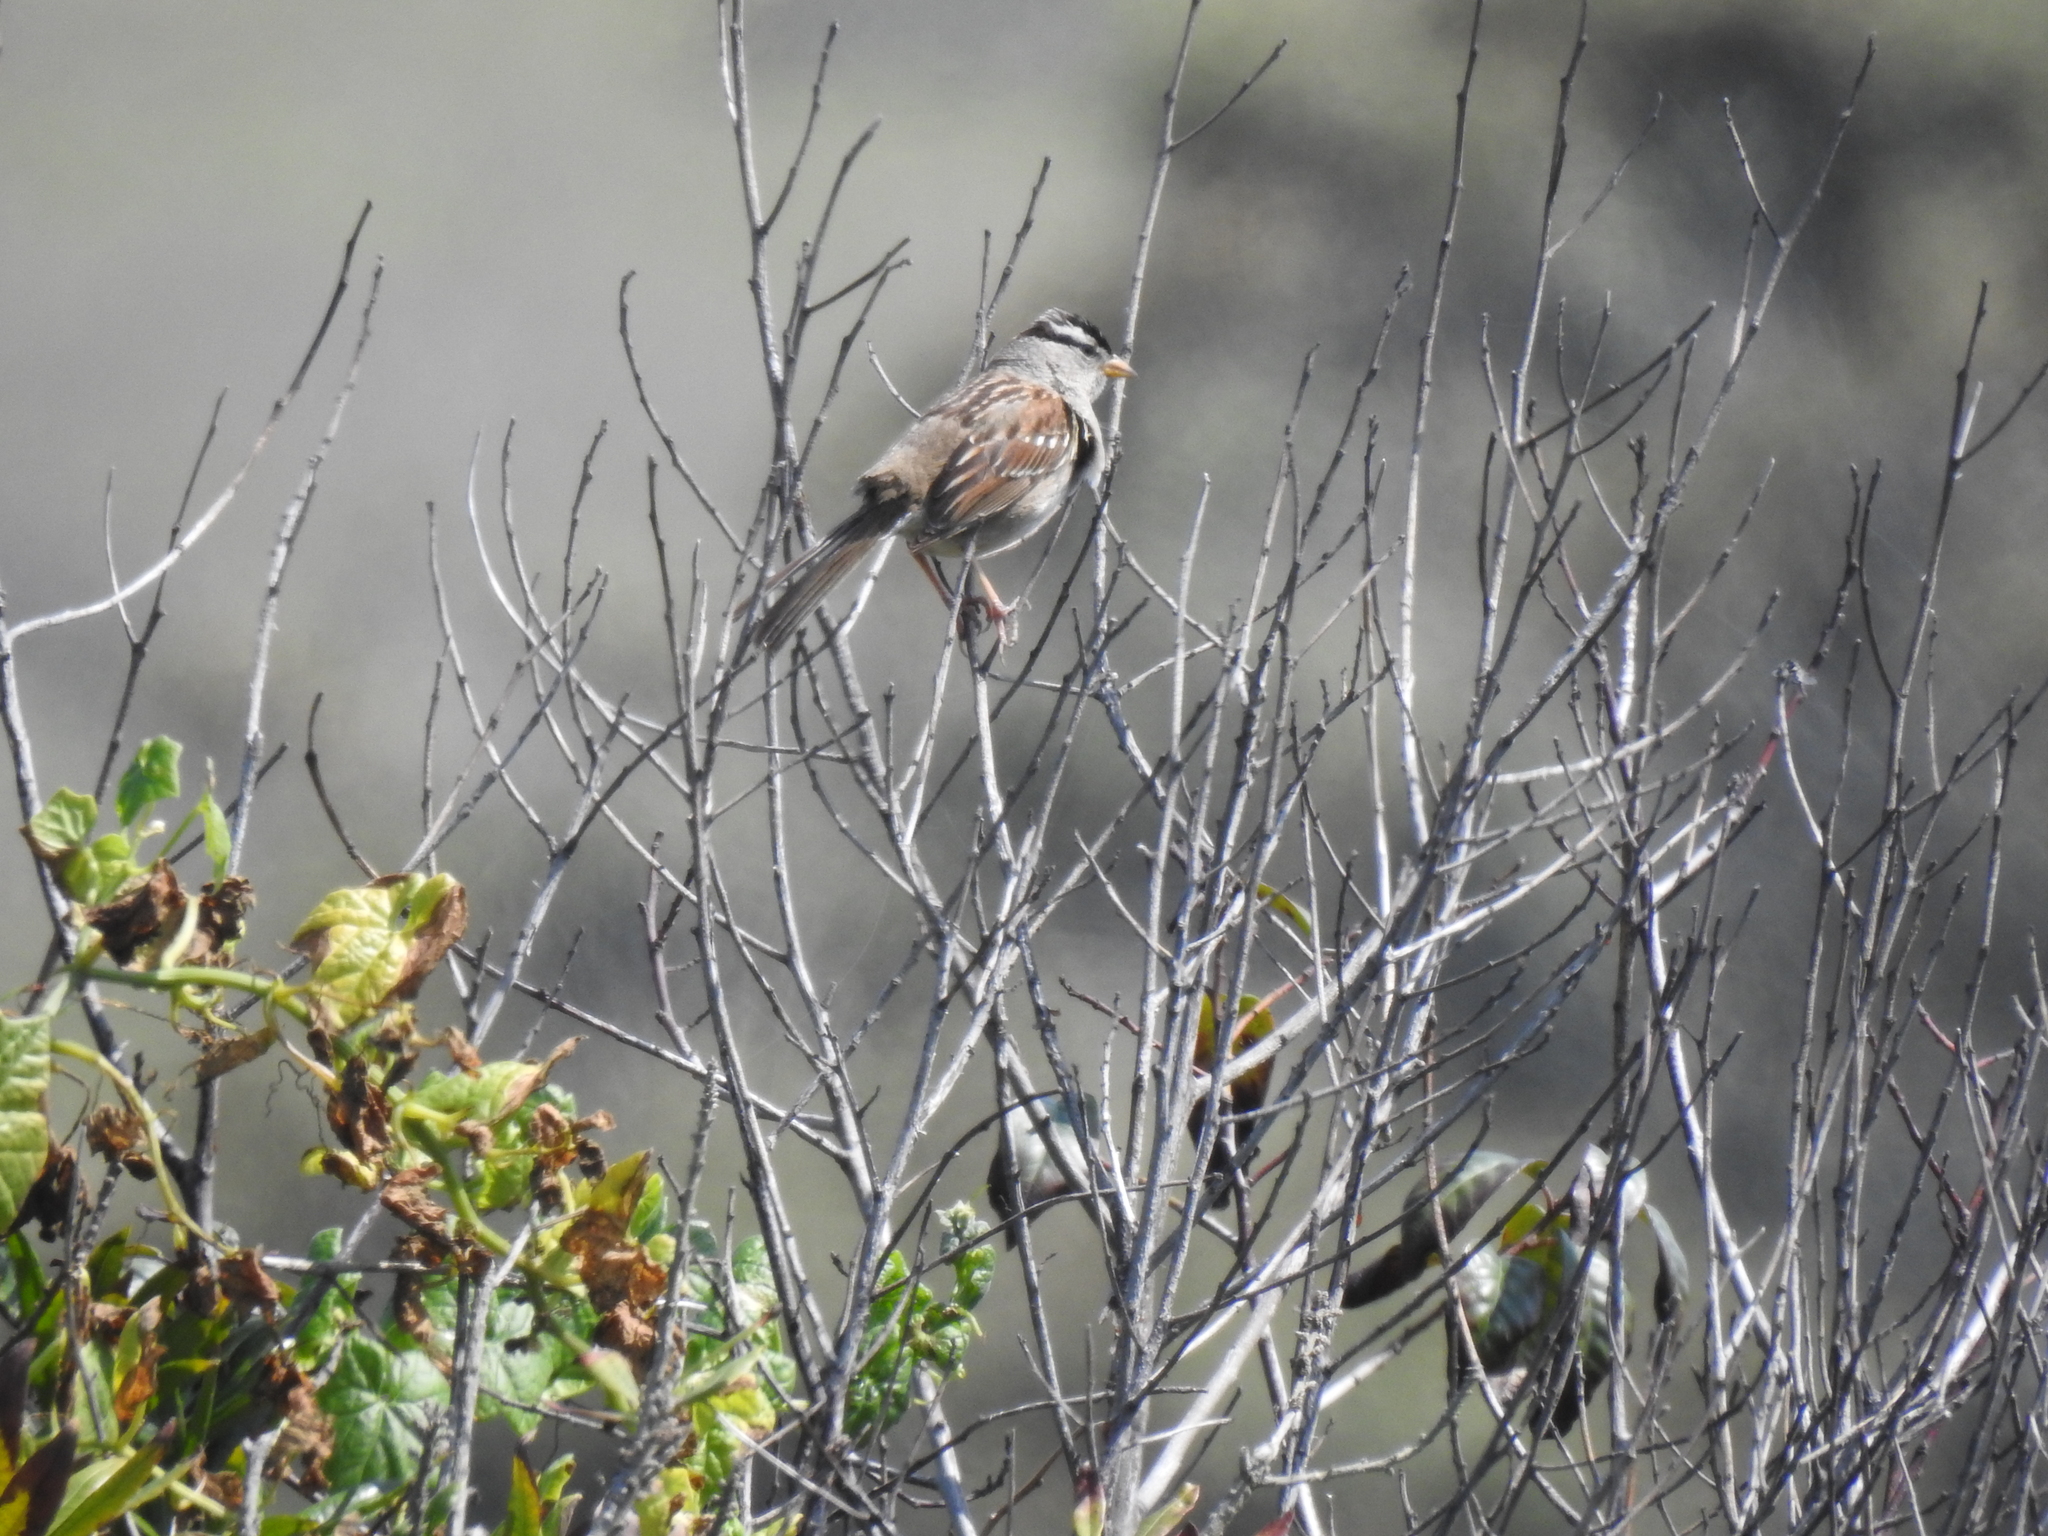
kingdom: Animalia
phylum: Chordata
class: Aves
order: Passeriformes
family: Passerellidae
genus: Zonotrichia
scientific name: Zonotrichia leucophrys
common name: White-crowned sparrow
